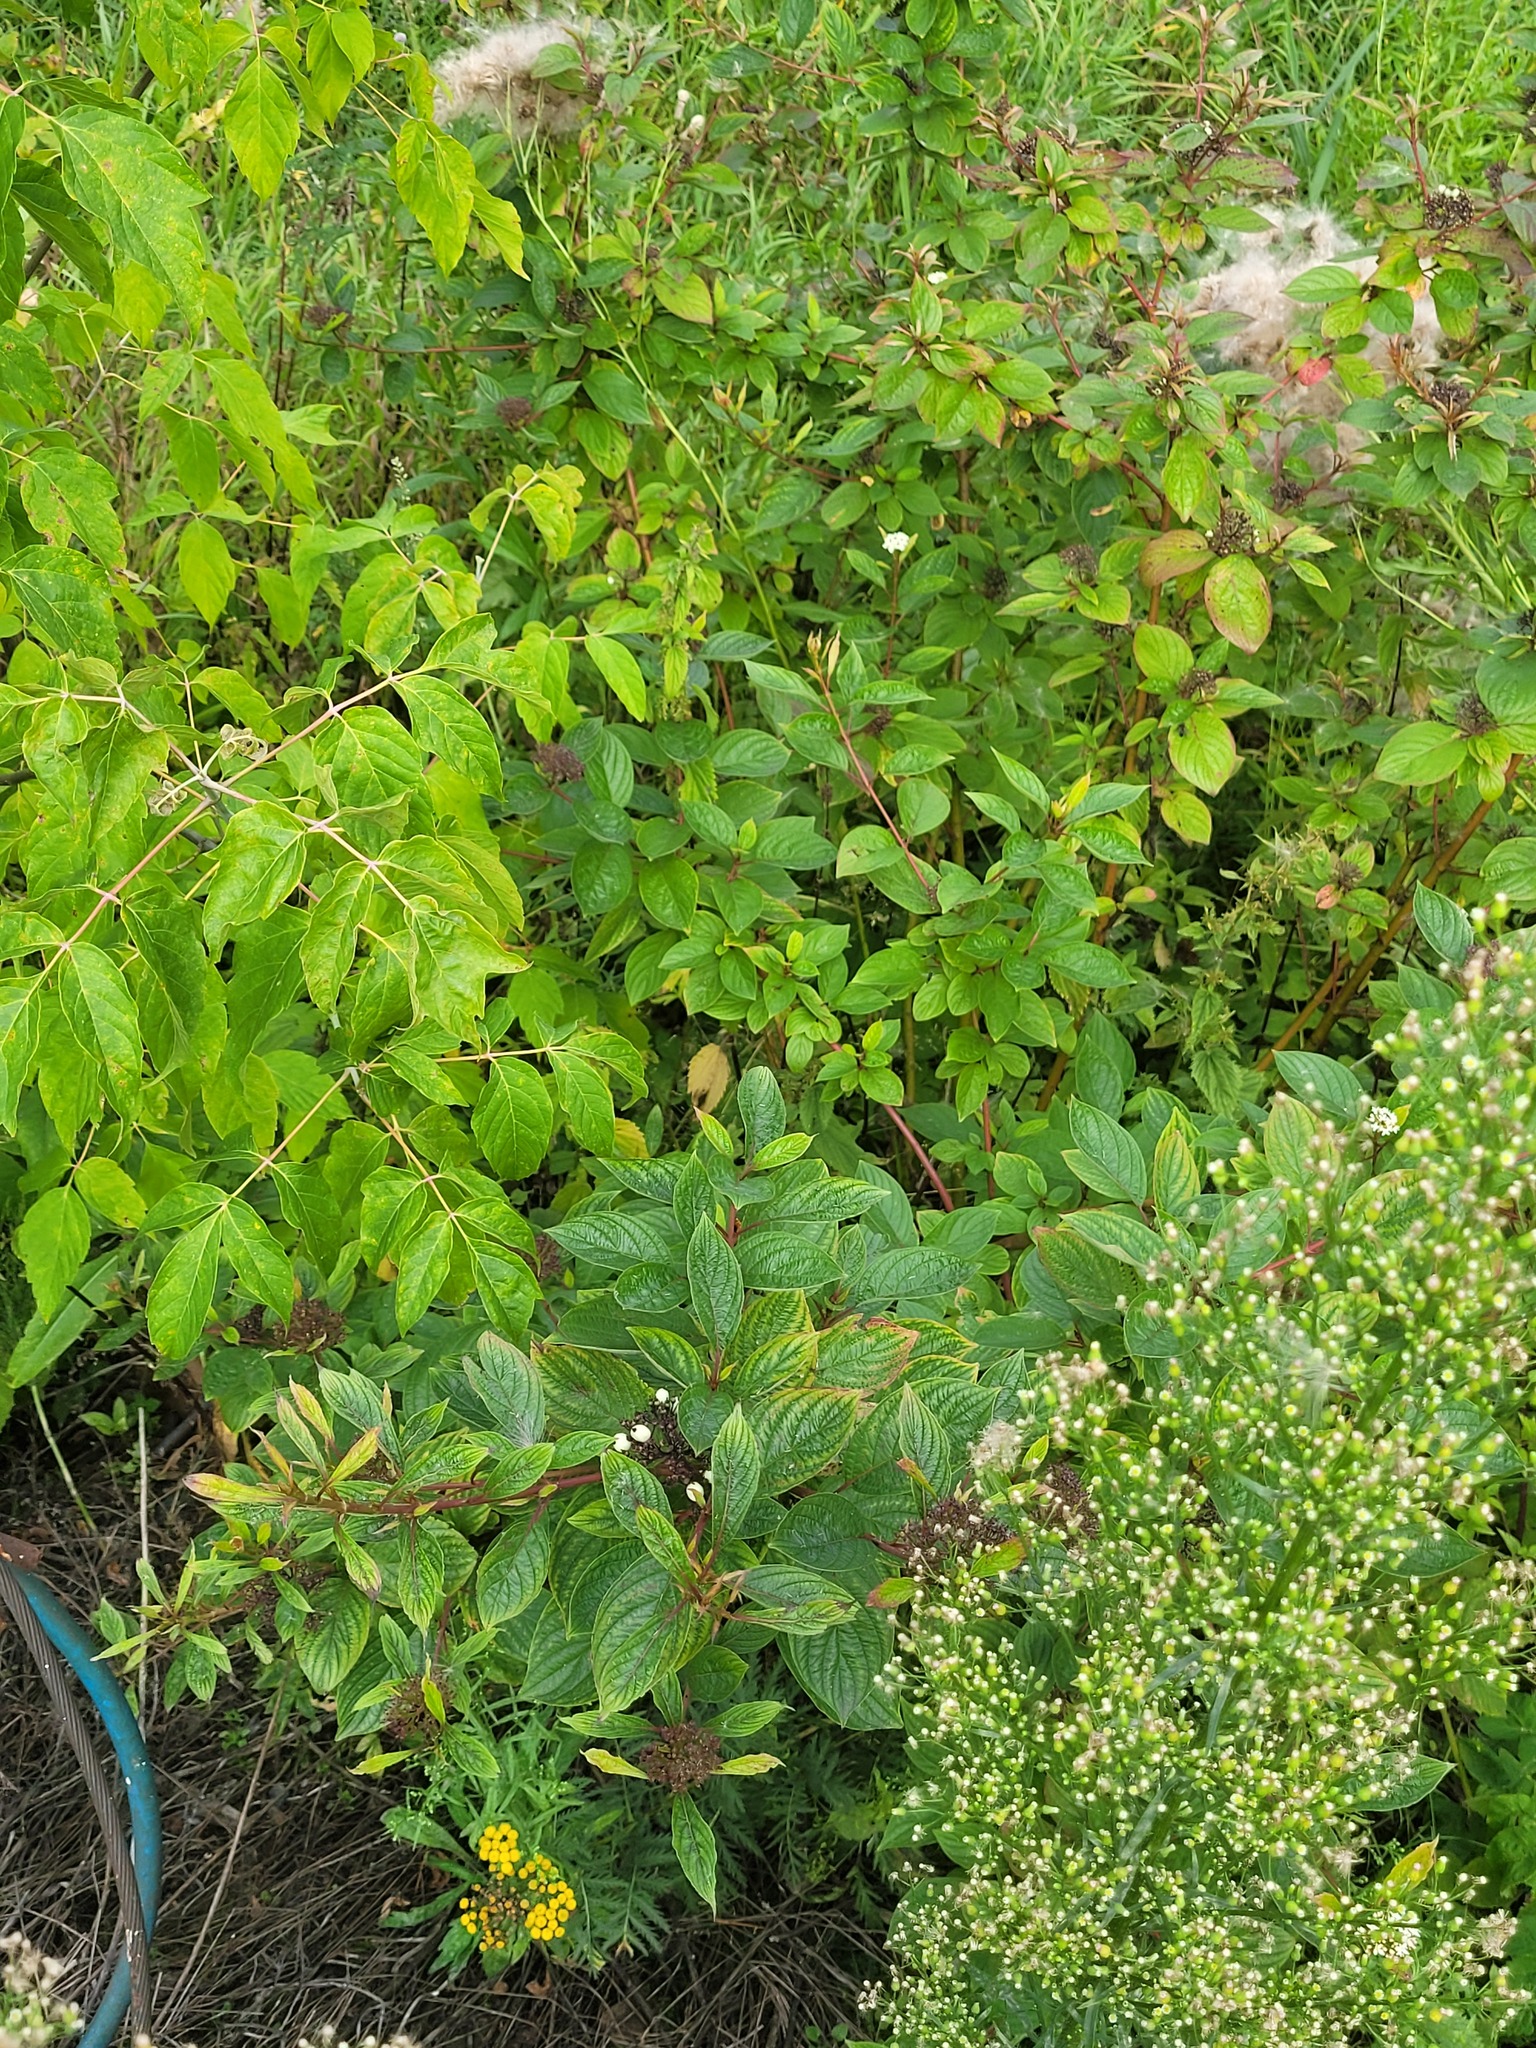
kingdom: Plantae
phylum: Tracheophyta
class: Magnoliopsida
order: Cornales
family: Cornaceae
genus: Cornus
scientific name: Cornus alba
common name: White dogwood
